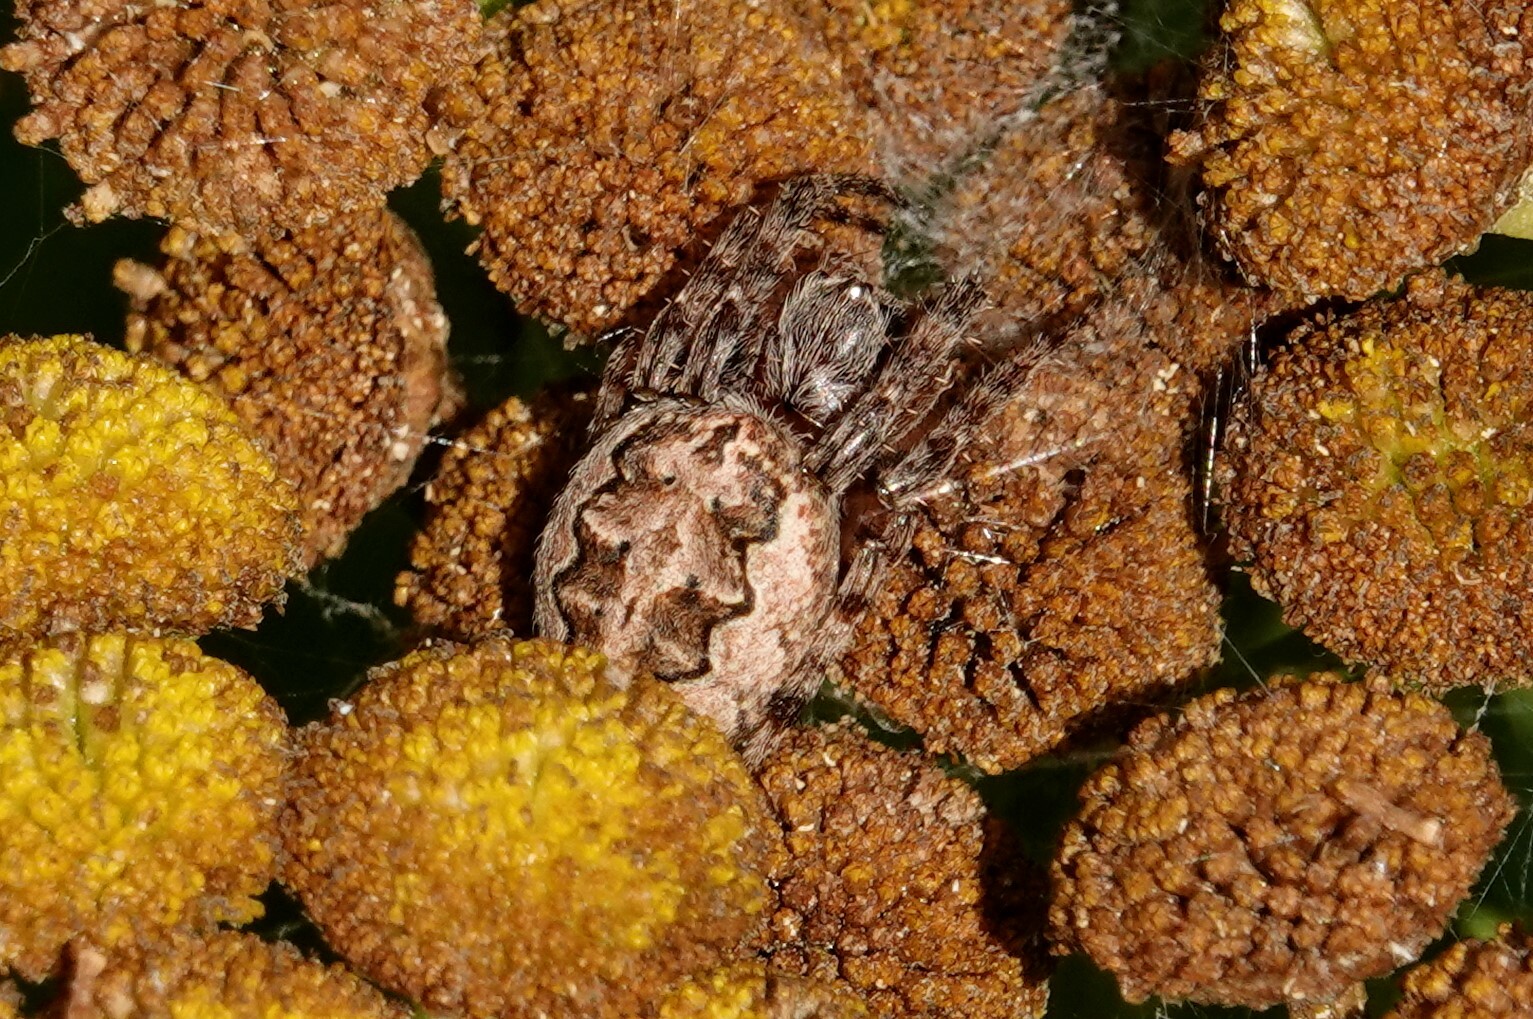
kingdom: Animalia
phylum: Arthropoda
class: Arachnida
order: Araneae
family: Araneidae
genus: Larinioides
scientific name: Larinioides patagiatus
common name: Ornamental orbweaver
